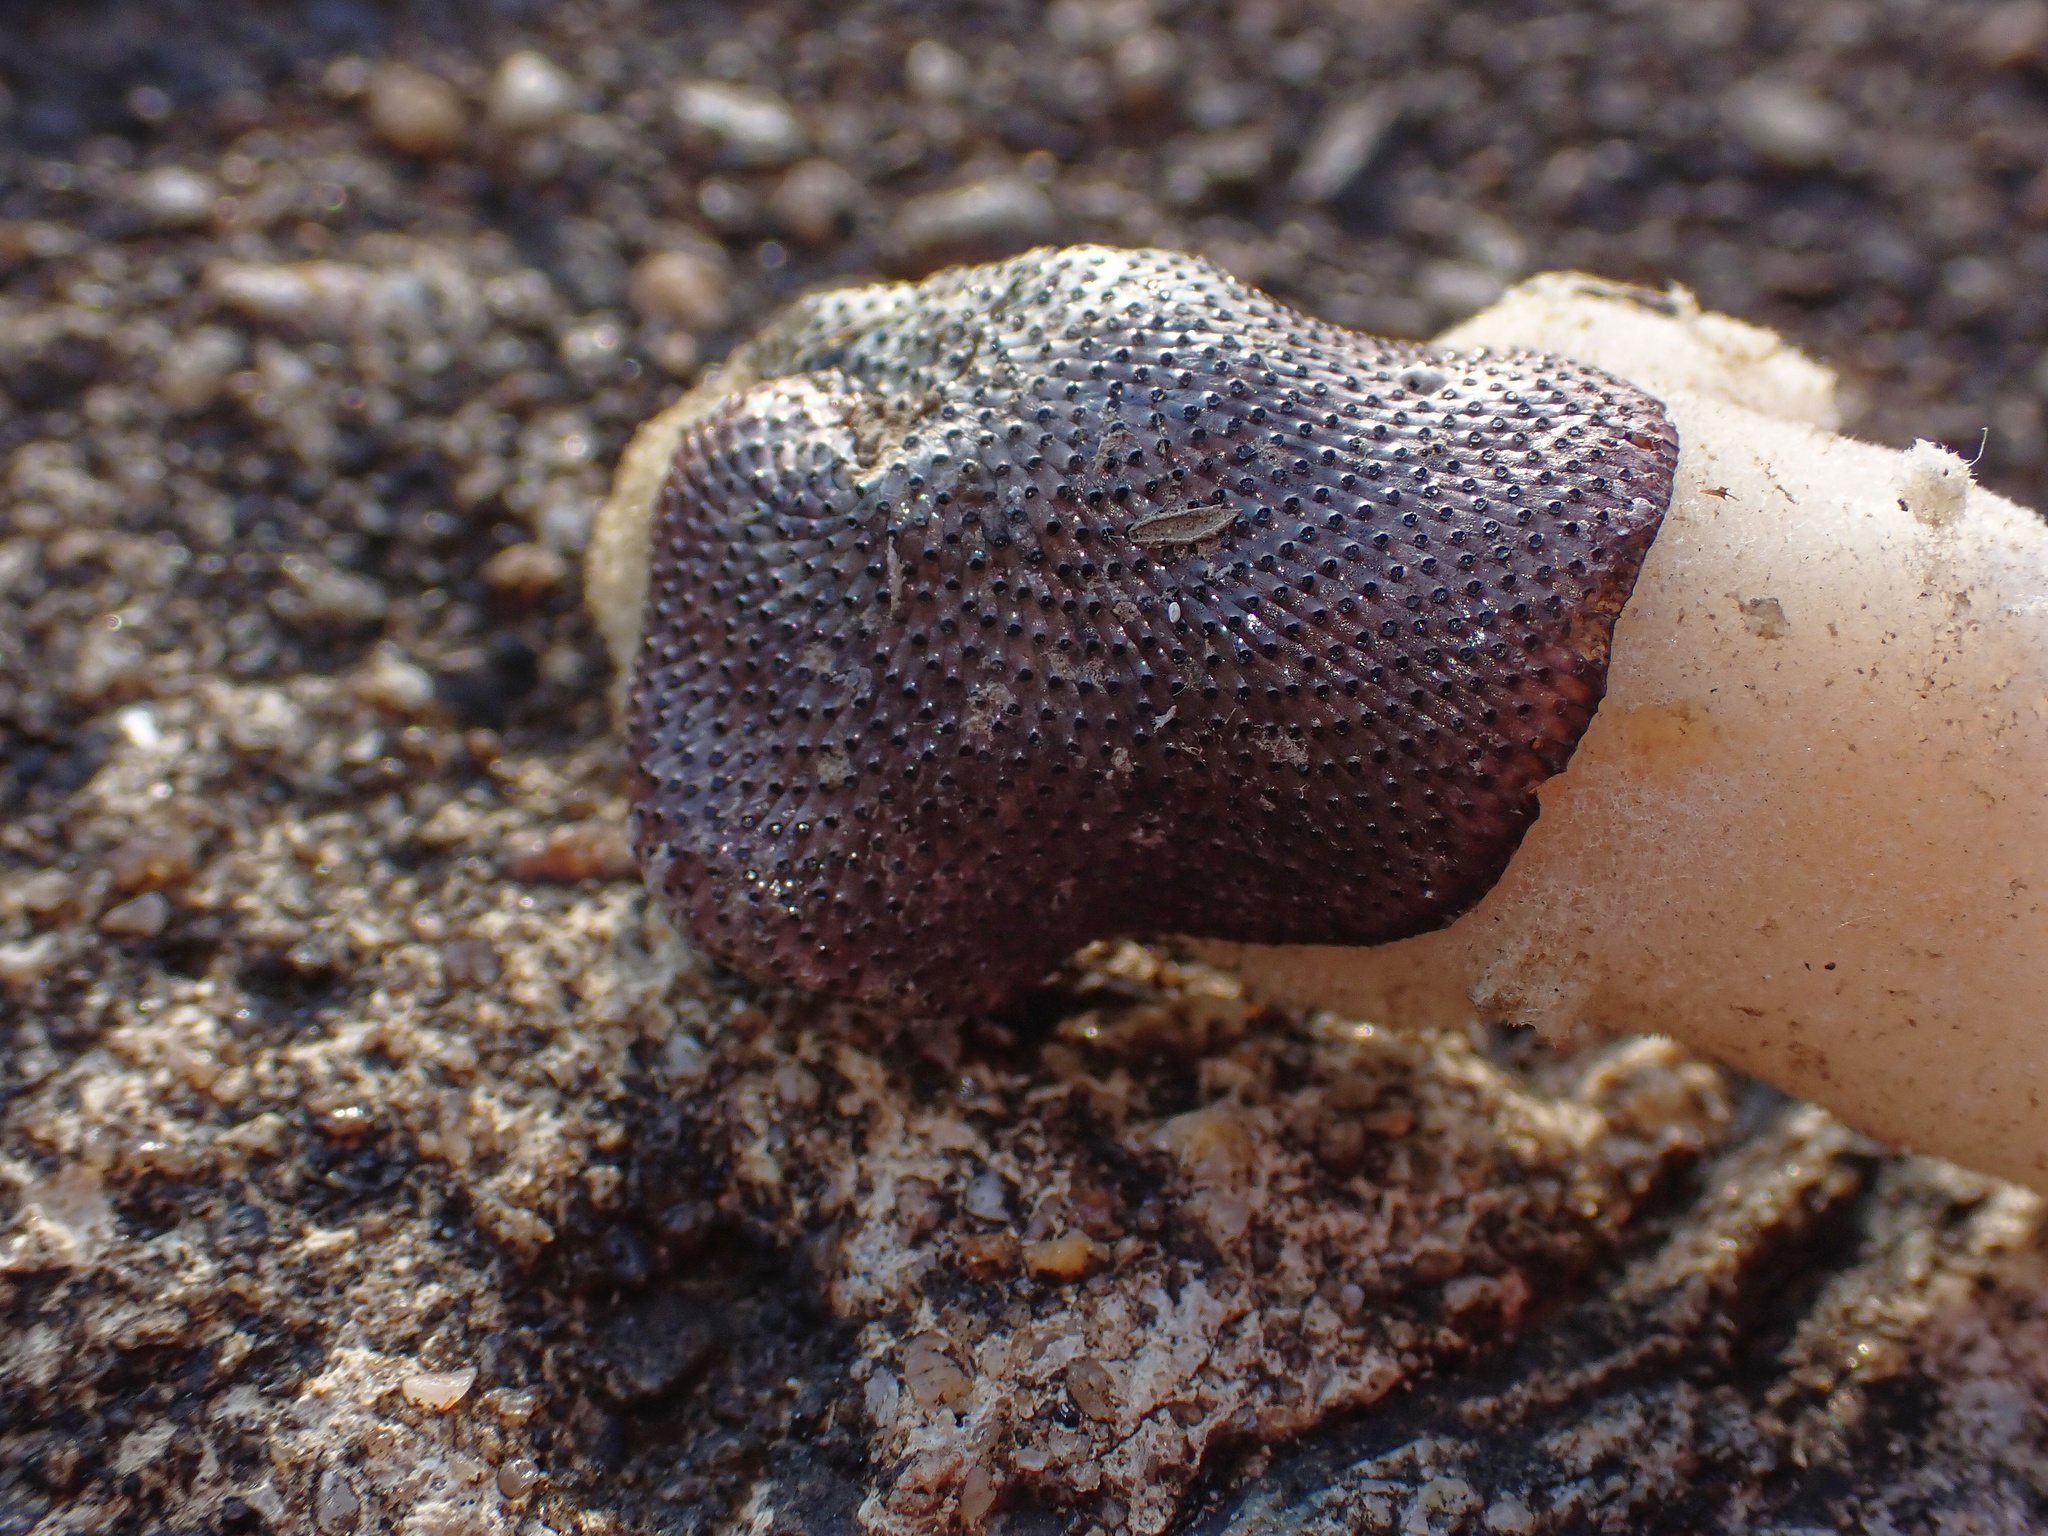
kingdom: Animalia
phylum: Bryozoa
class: Gymnolaemata
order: Cheilostomatida
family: Watersiporidae
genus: Watersipora
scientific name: Watersipora subatra
